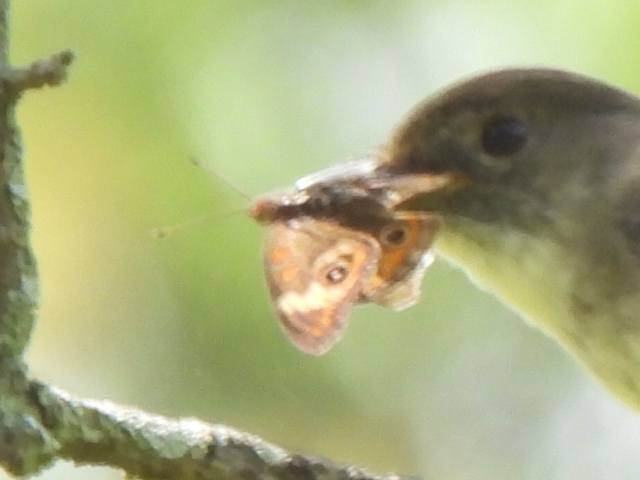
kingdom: Animalia
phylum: Arthropoda
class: Insecta
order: Lepidoptera
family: Nymphalidae
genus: Junonia
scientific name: Junonia coenia
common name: Common buckeye
